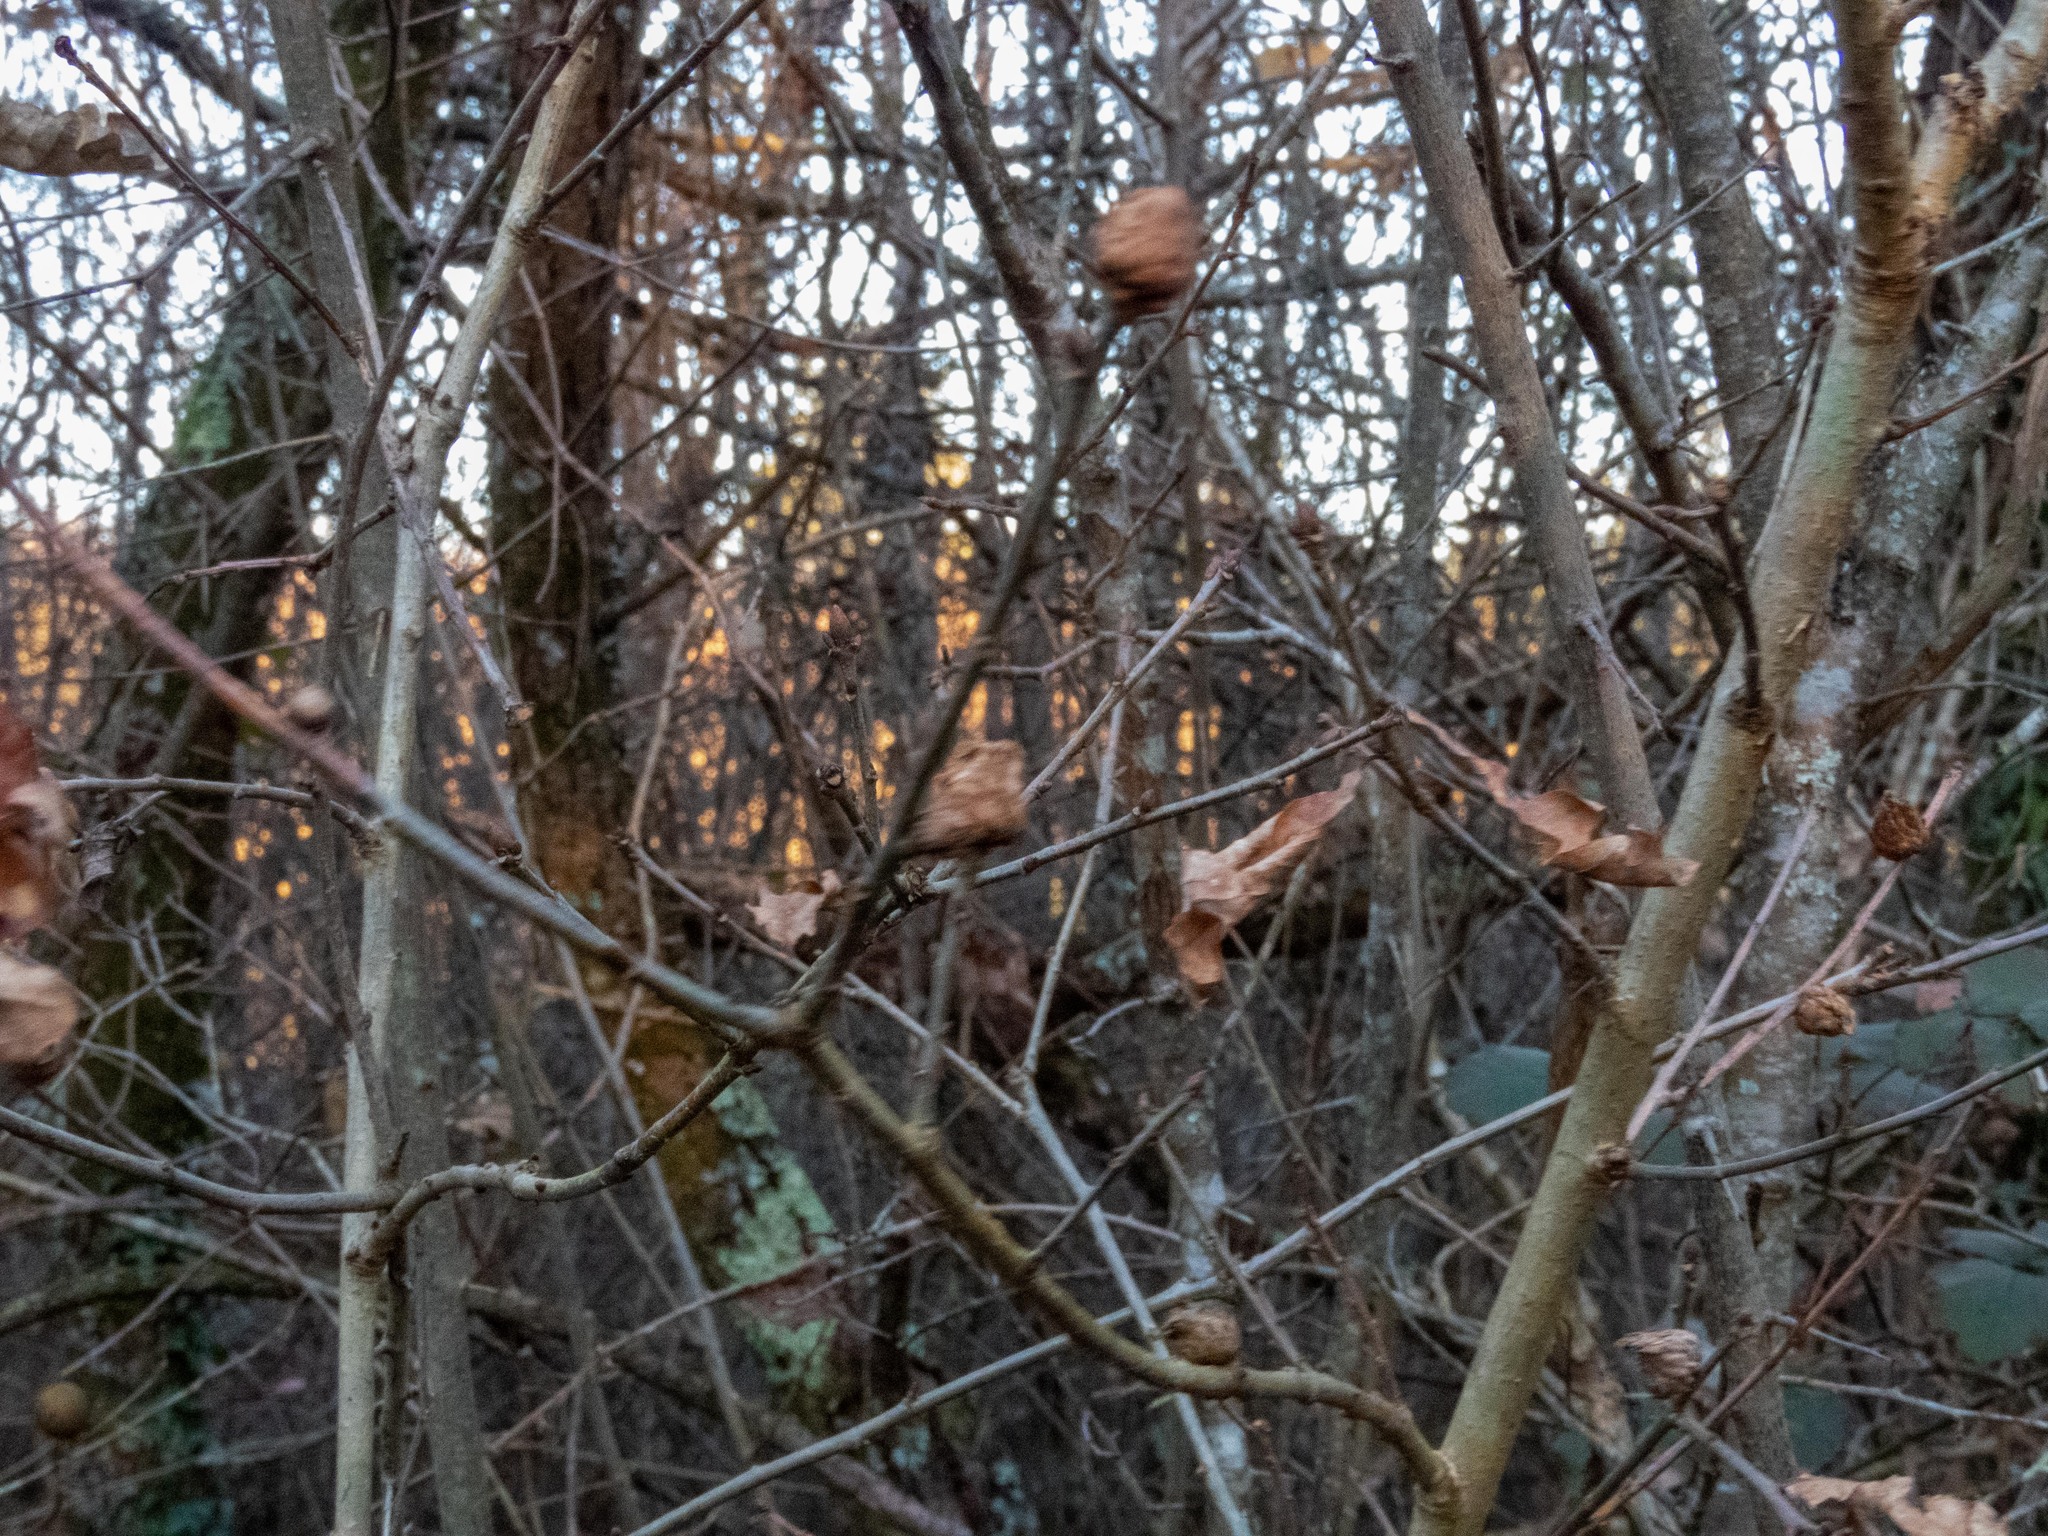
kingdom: Animalia
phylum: Arthropoda
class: Insecta
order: Hymenoptera
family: Cynipidae
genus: Andricus
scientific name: Andricus foecundatrix
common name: Artichoke gall
